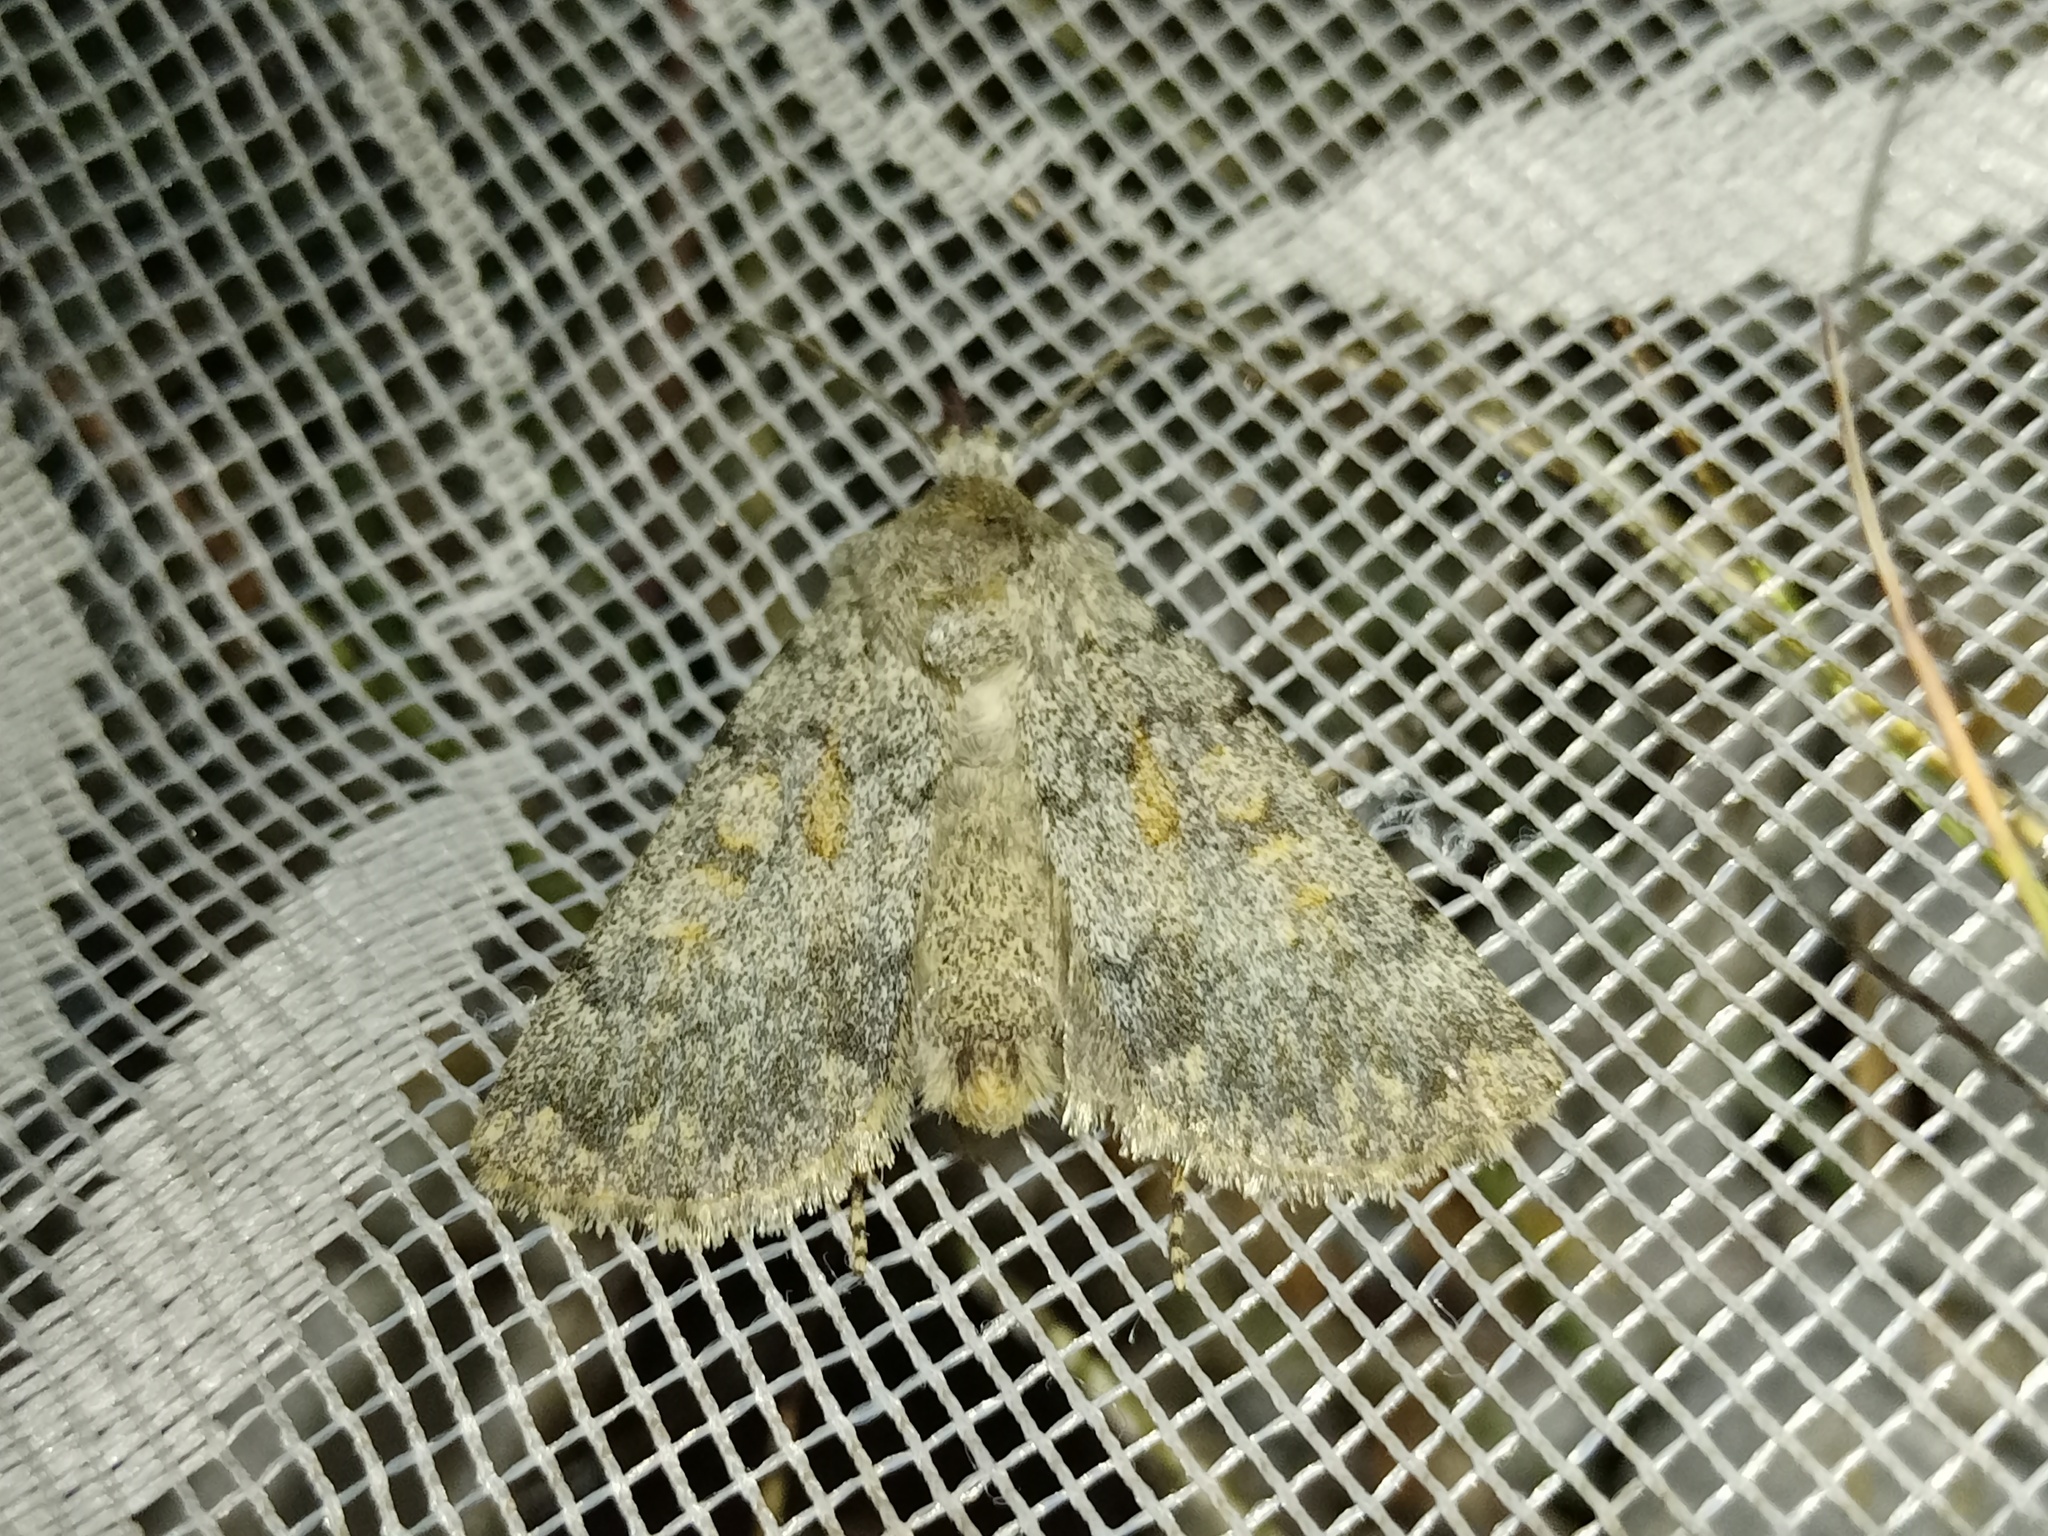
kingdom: Animalia
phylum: Arthropoda
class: Insecta
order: Lepidoptera
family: Noctuidae
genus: Dichagyris
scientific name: Dichagyris renigera
